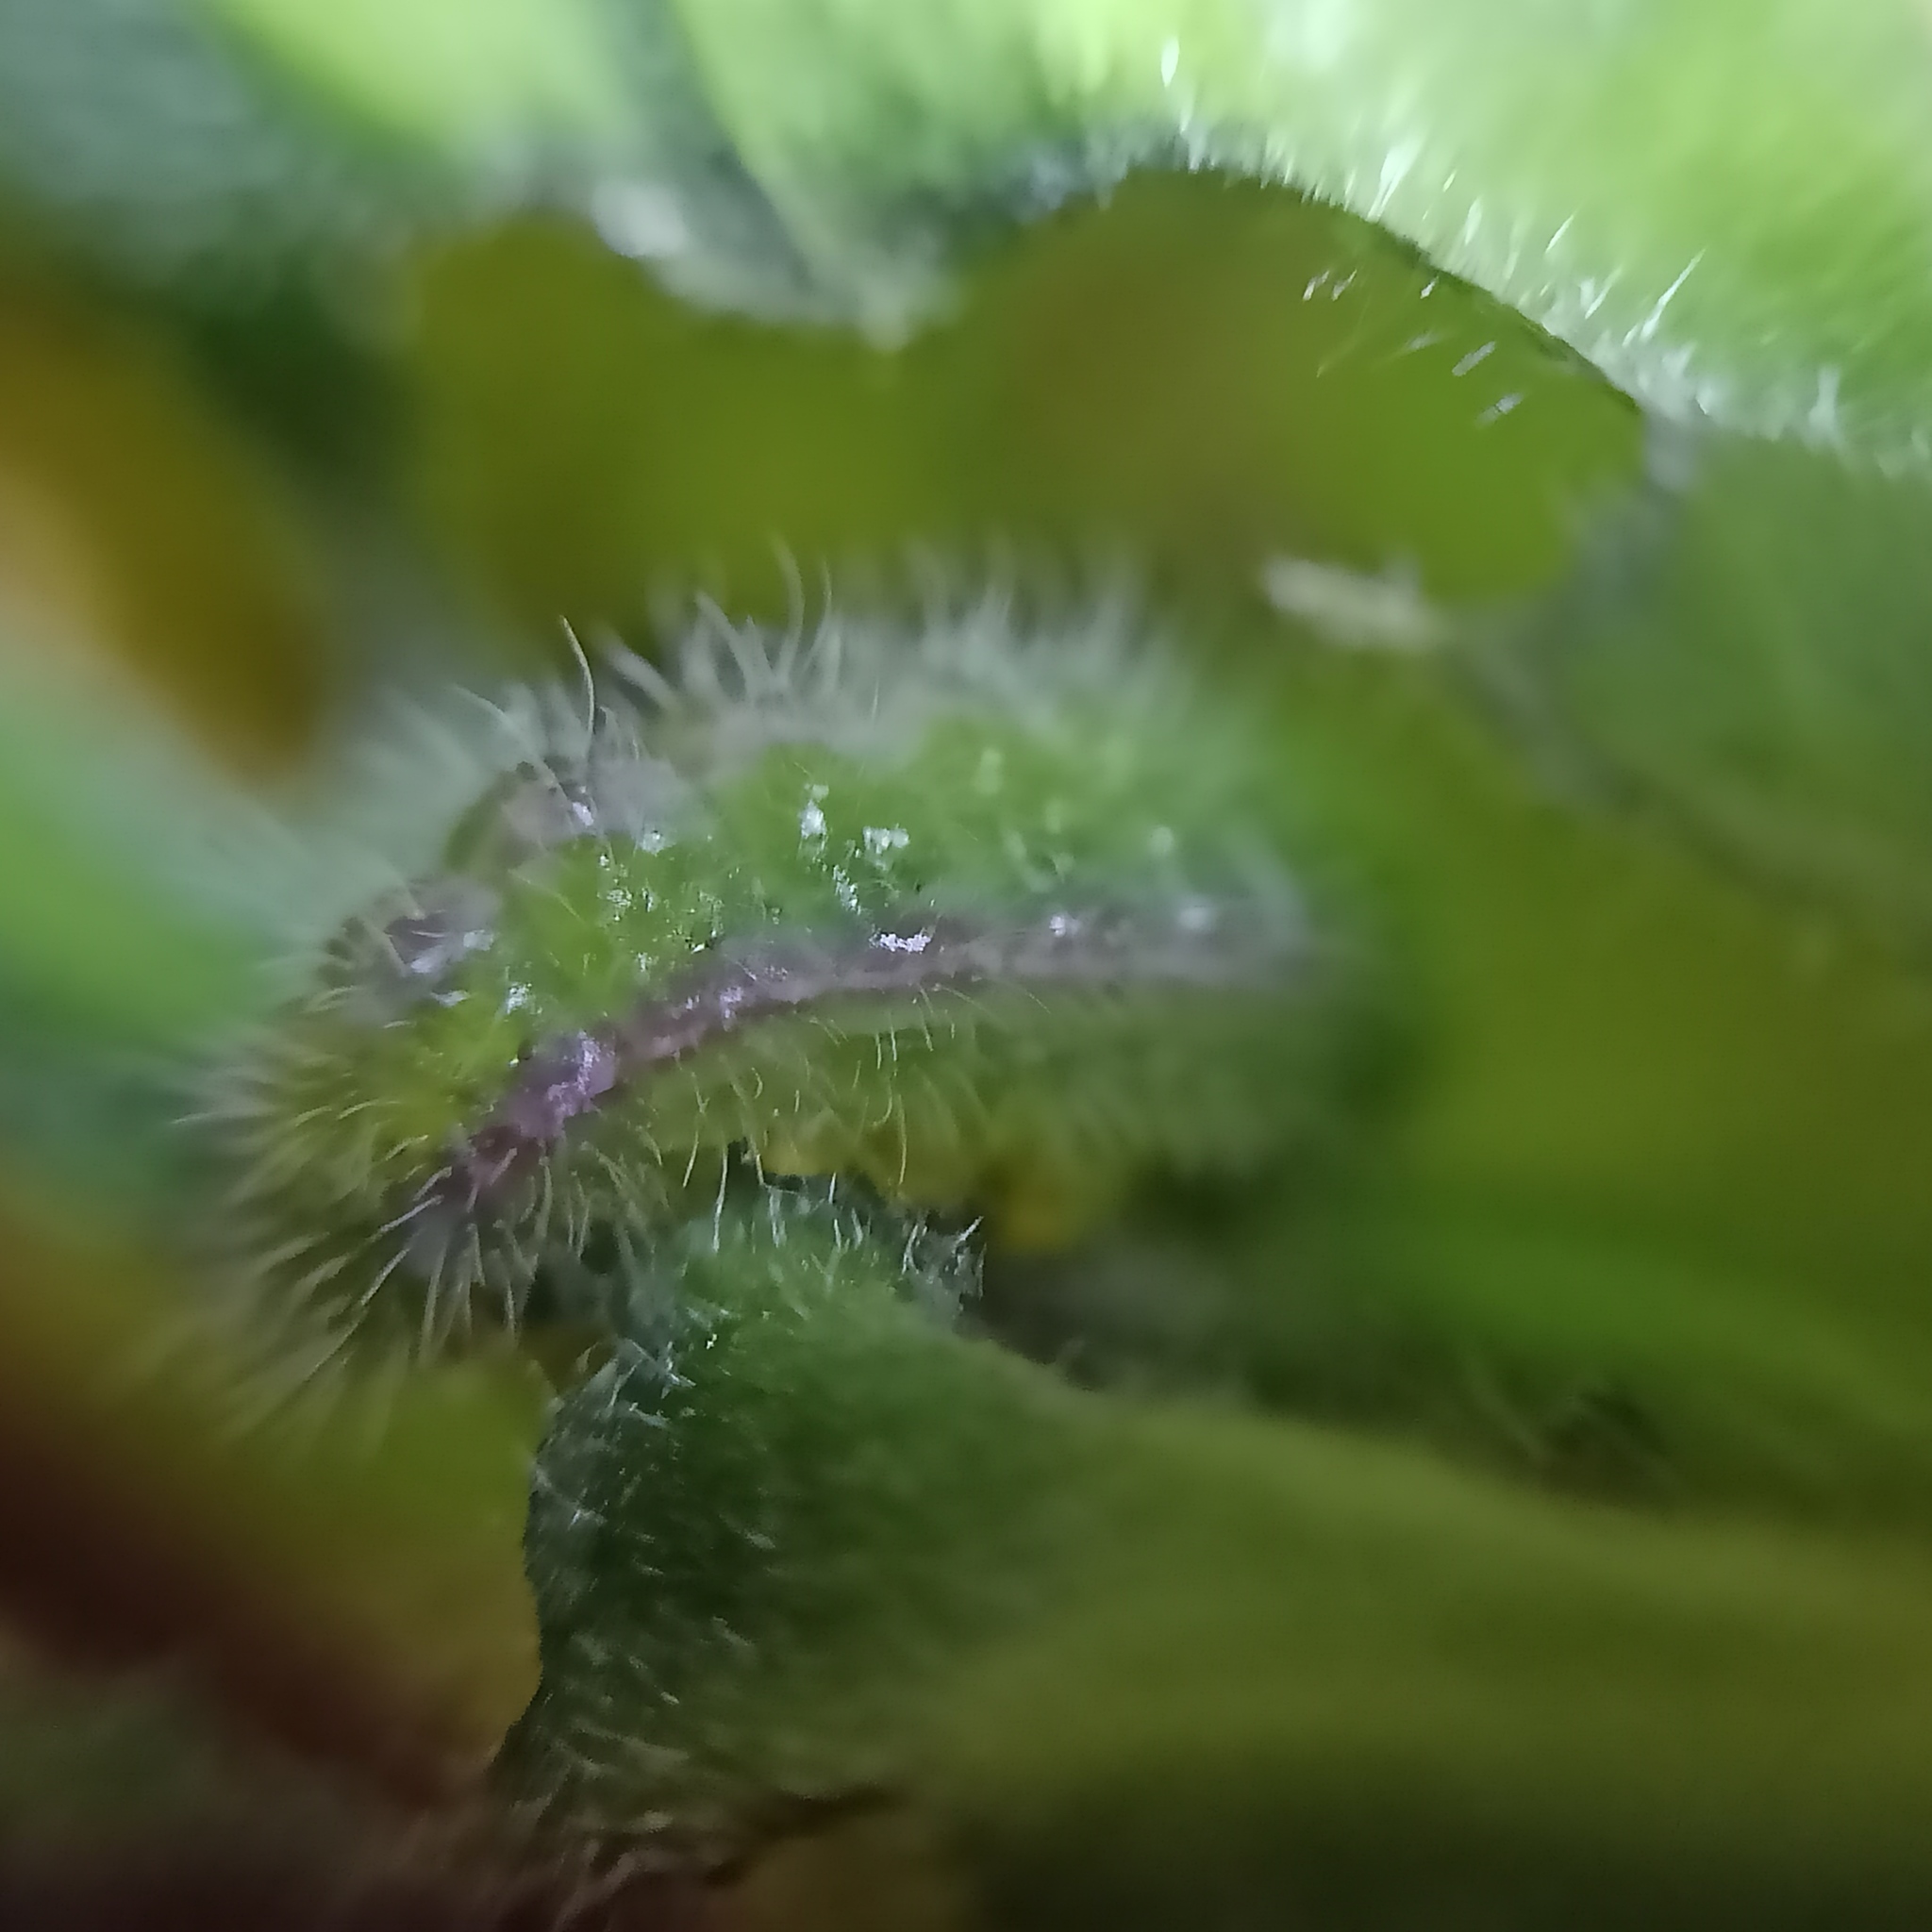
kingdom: Animalia
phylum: Arthropoda
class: Insecta
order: Lepidoptera
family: Lycaenidae
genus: Cacyreus
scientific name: Cacyreus marshalli
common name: Geranium bronze
